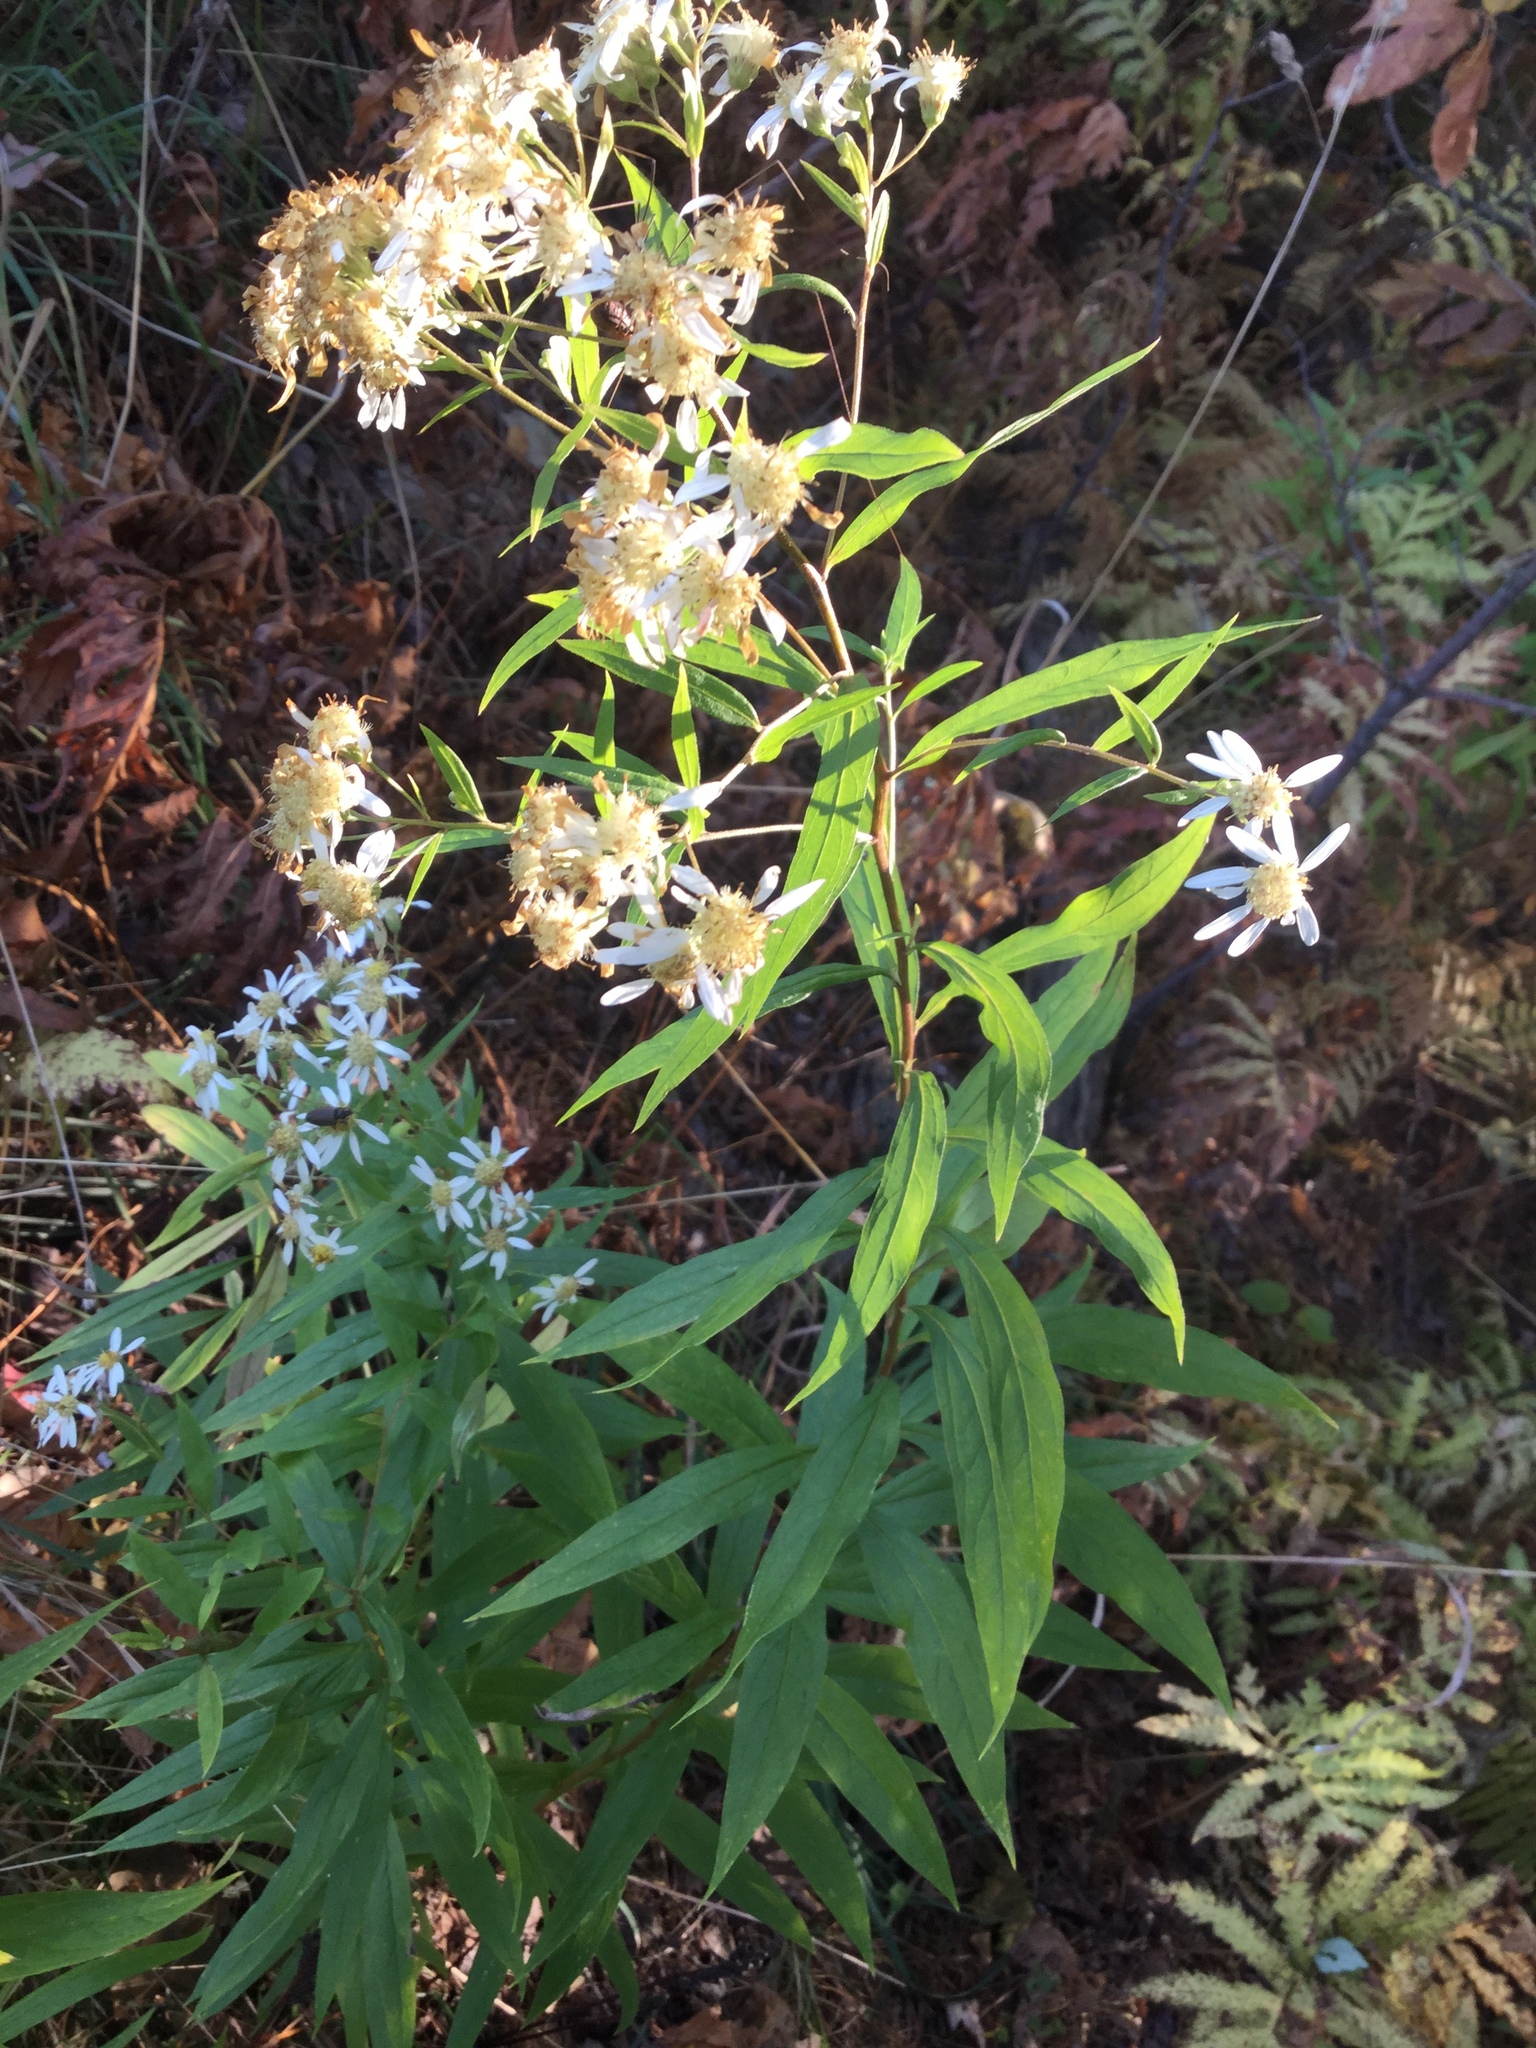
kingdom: Plantae
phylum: Tracheophyta
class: Magnoliopsida
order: Asterales
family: Asteraceae
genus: Doellingeria
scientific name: Doellingeria umbellata
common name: Flat-top white aster
